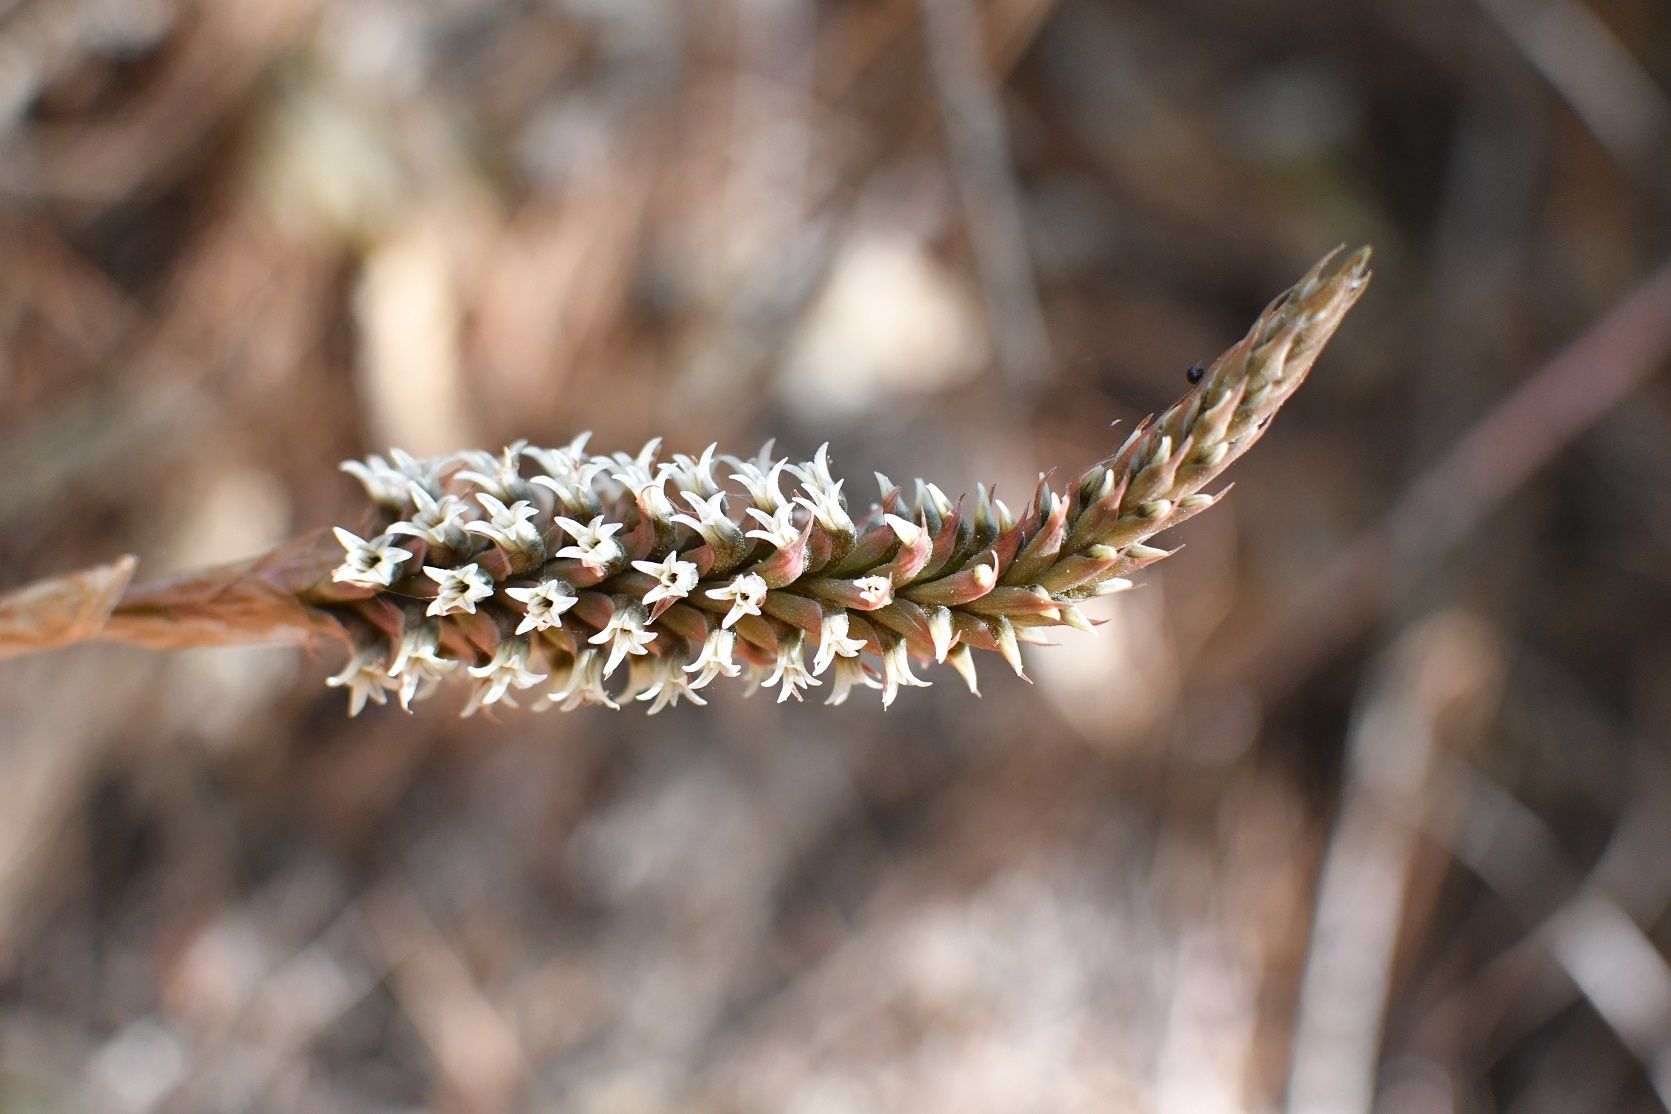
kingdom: Plantae
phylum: Tracheophyta
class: Liliopsida
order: Asparagales
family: Orchidaceae
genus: Aulosepalum
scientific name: Aulosepalum pyramidale
